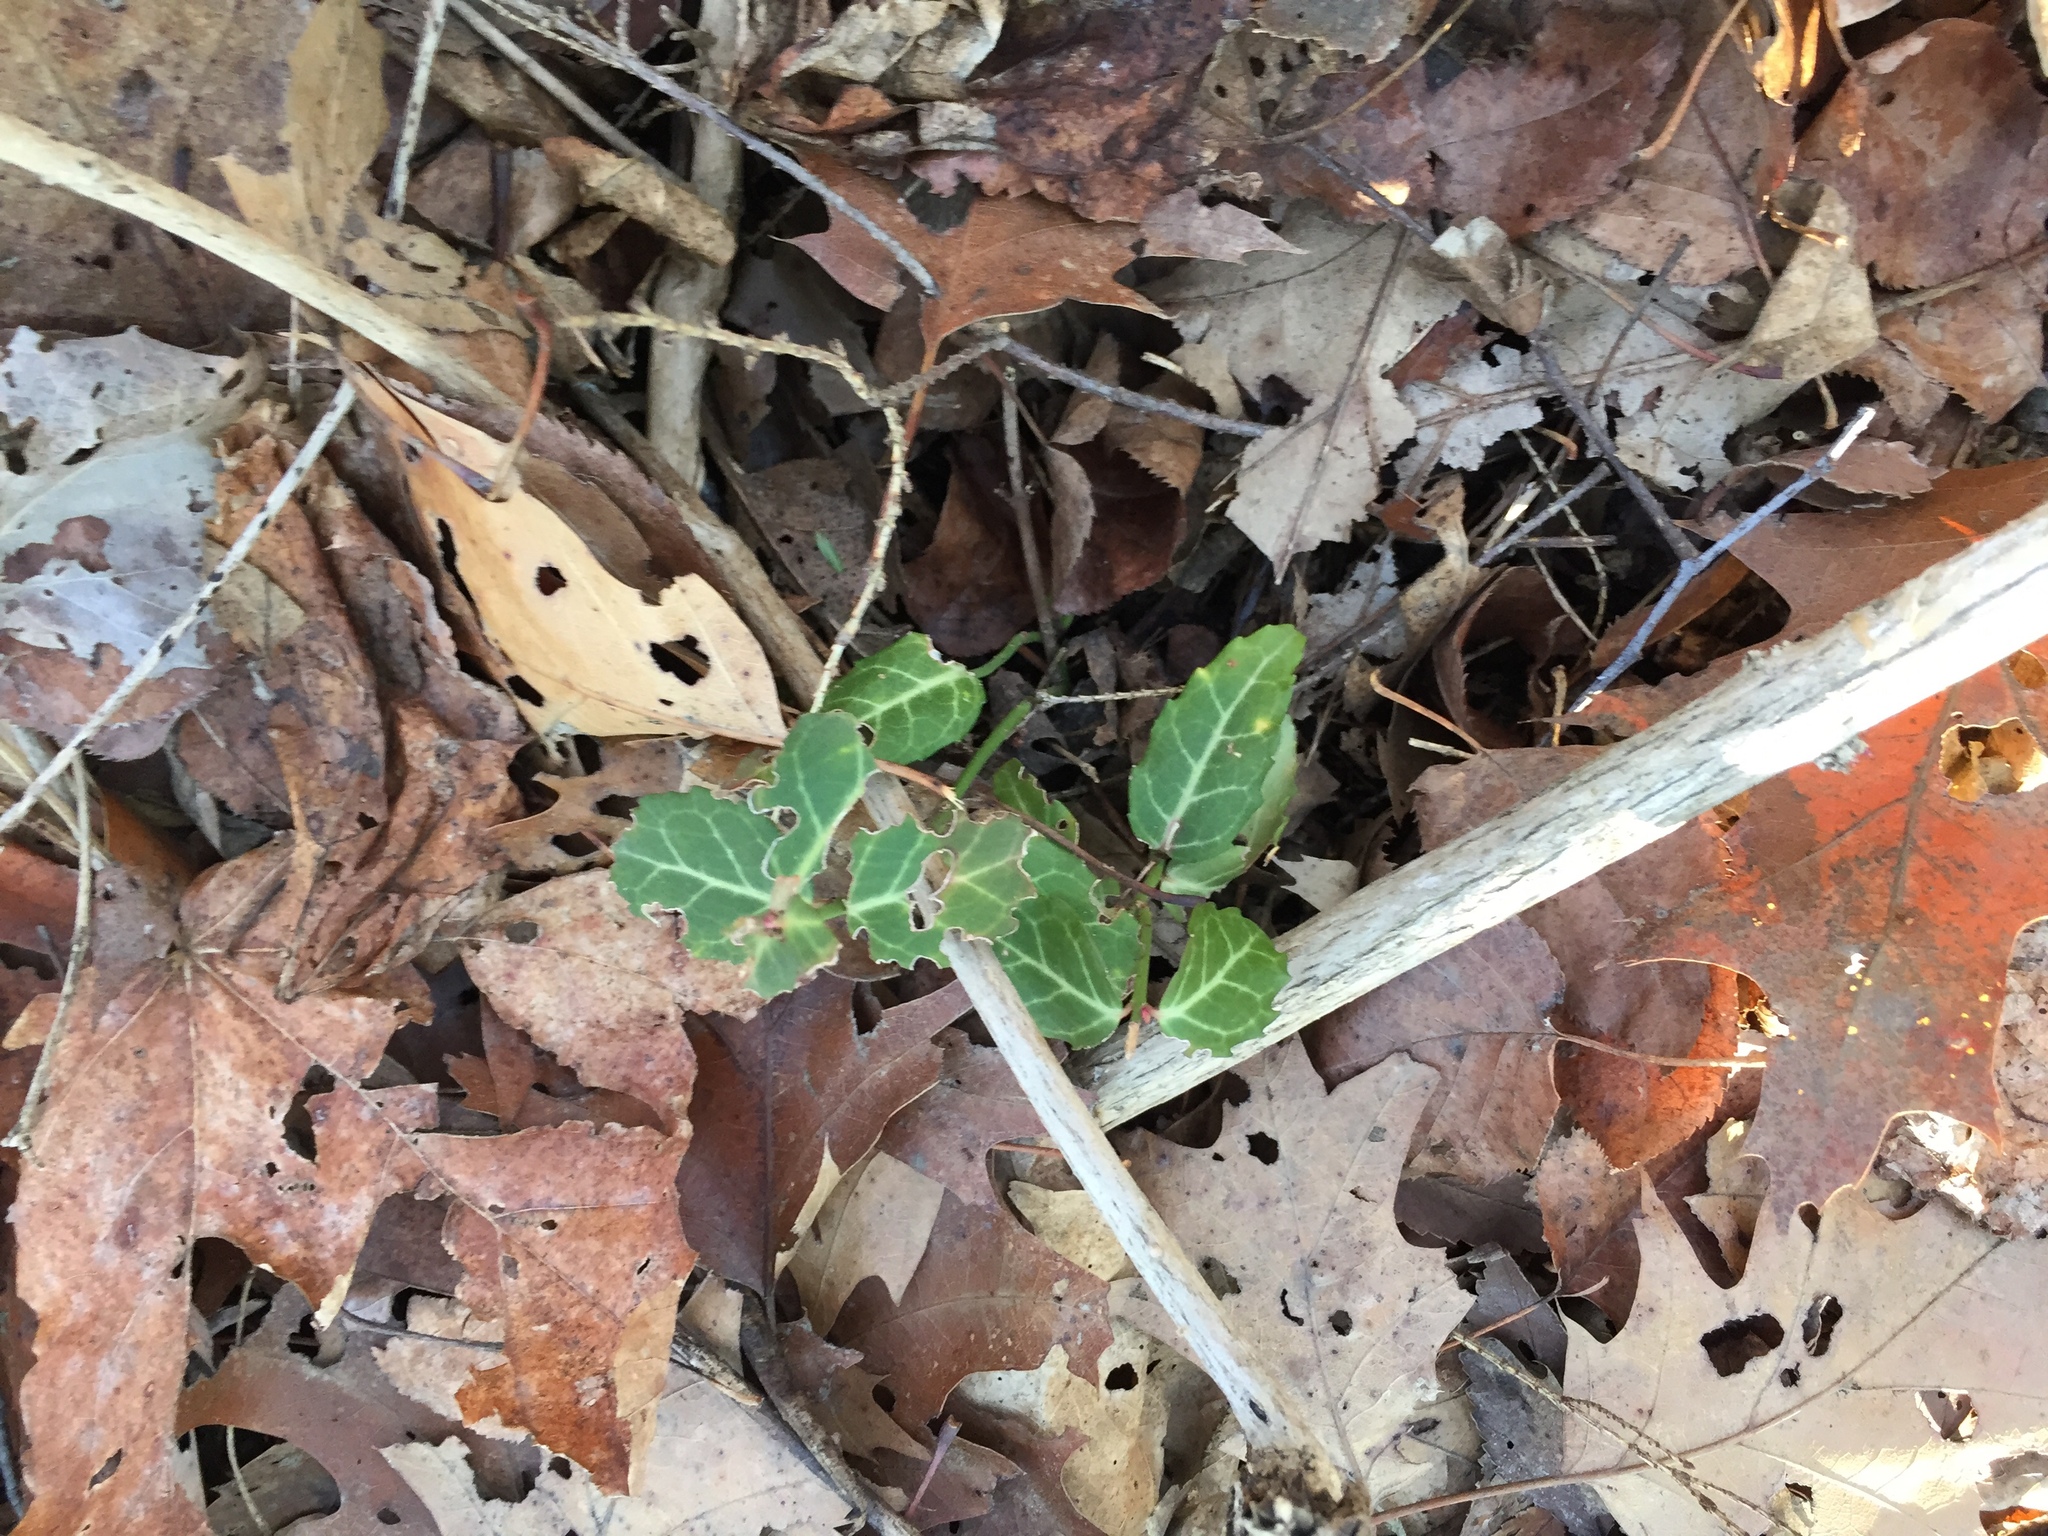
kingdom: Plantae
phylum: Tracheophyta
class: Magnoliopsida
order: Celastrales
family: Celastraceae
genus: Euonymus
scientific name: Euonymus fortunei
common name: Climbing euonymus
